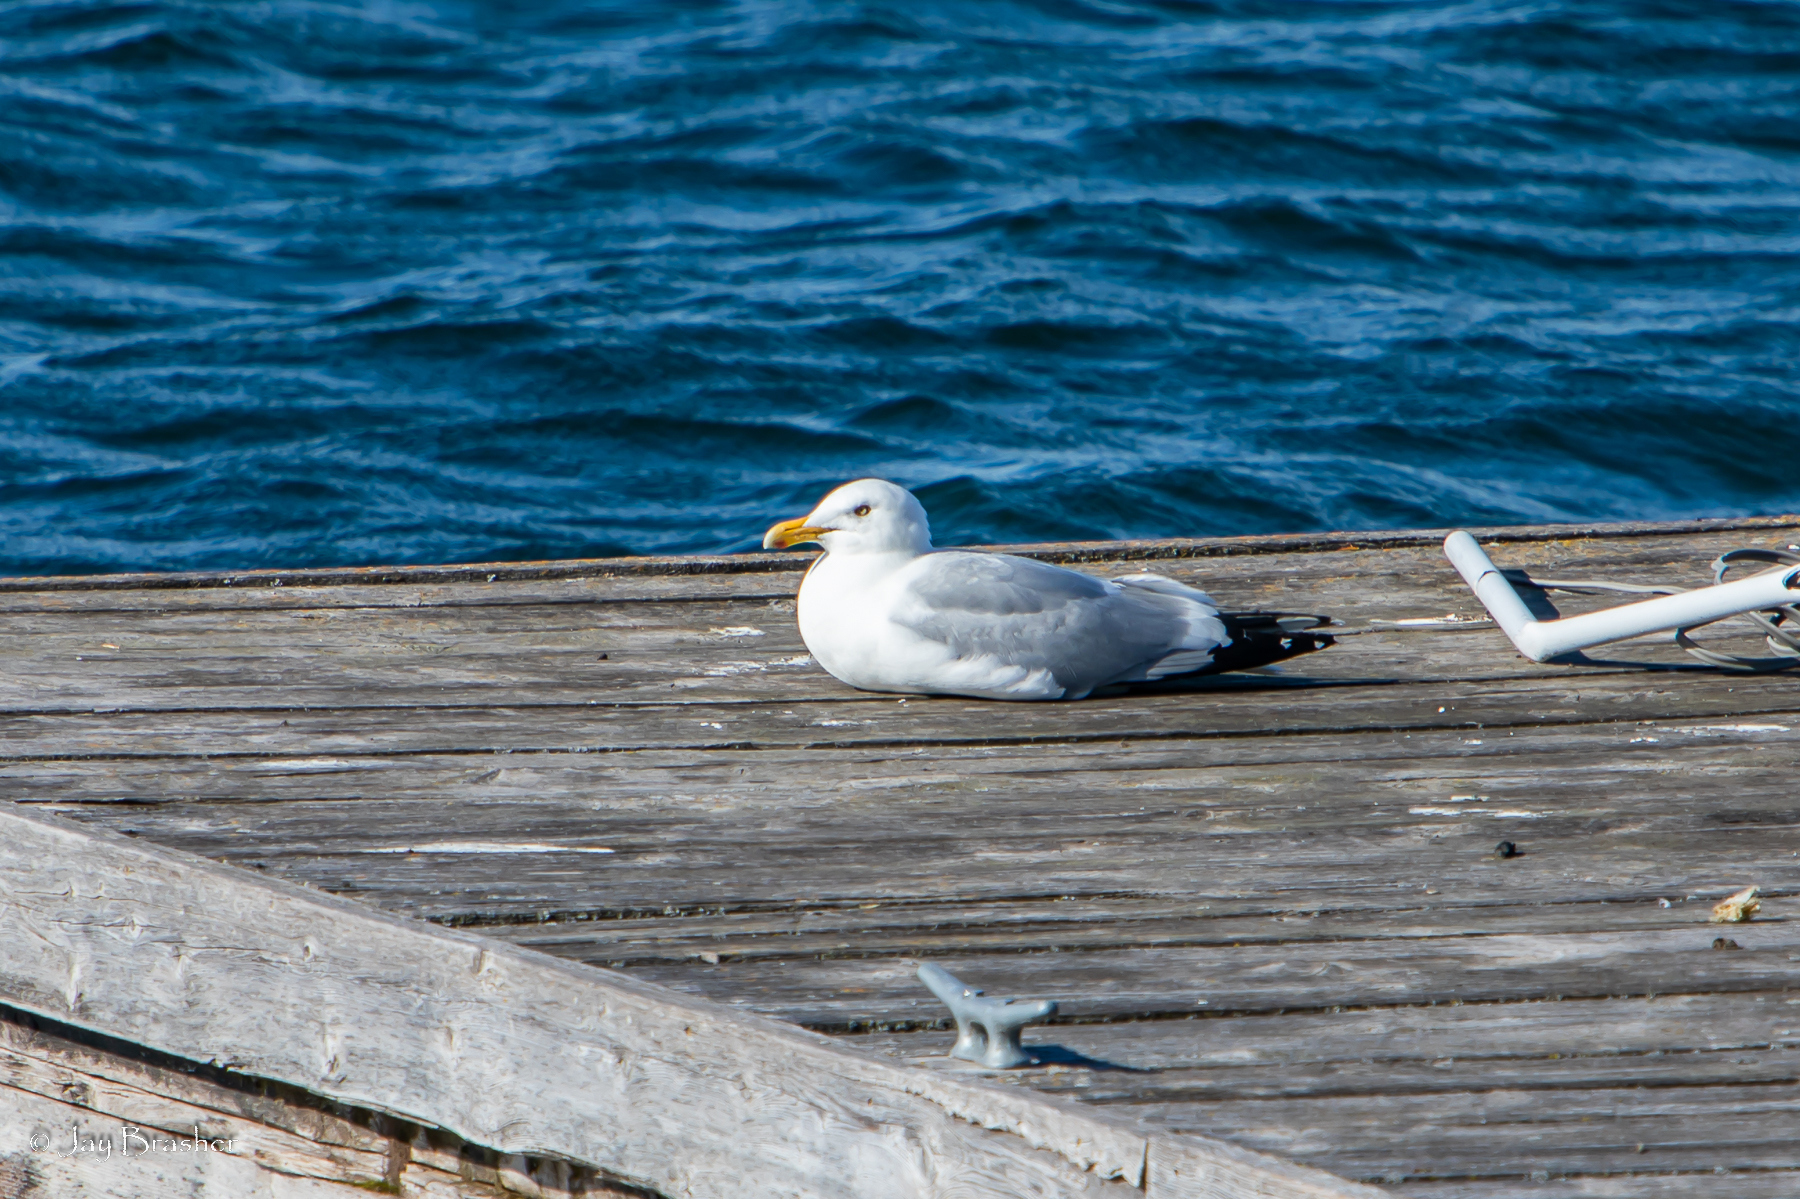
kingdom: Animalia
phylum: Chordata
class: Aves
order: Charadriiformes
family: Laridae
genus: Larus
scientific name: Larus argentatus
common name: Herring gull
